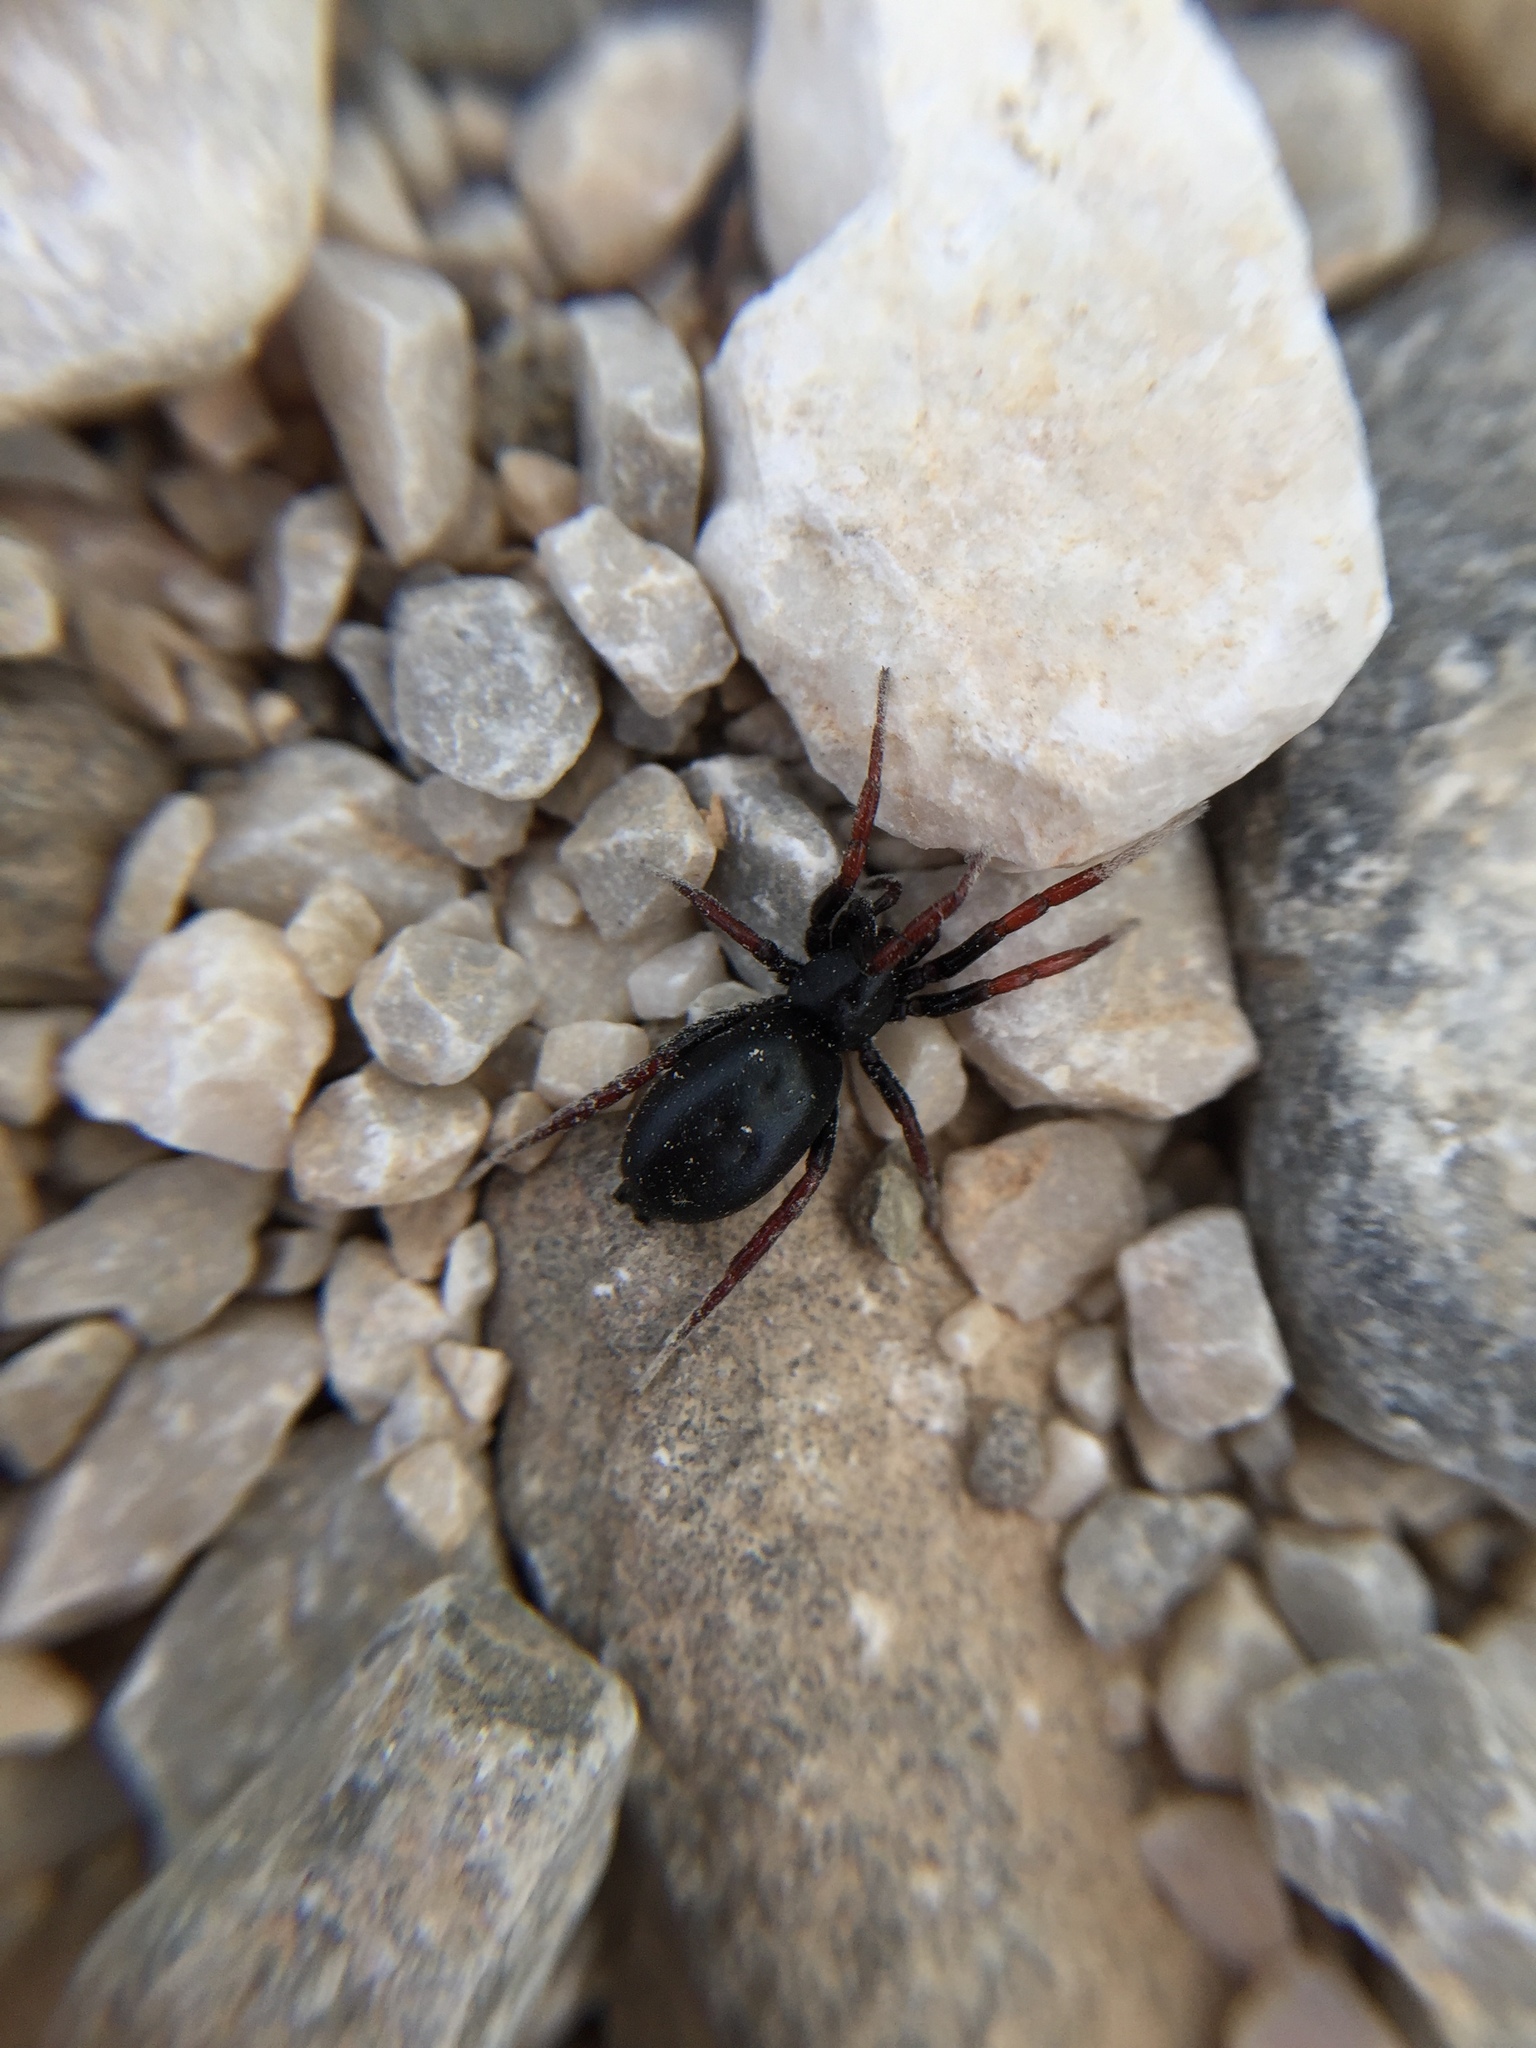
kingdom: Animalia
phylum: Arthropoda
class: Arachnida
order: Araneae
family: Gnaphosidae
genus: Trachyzelotes
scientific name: Trachyzelotes pedestris
